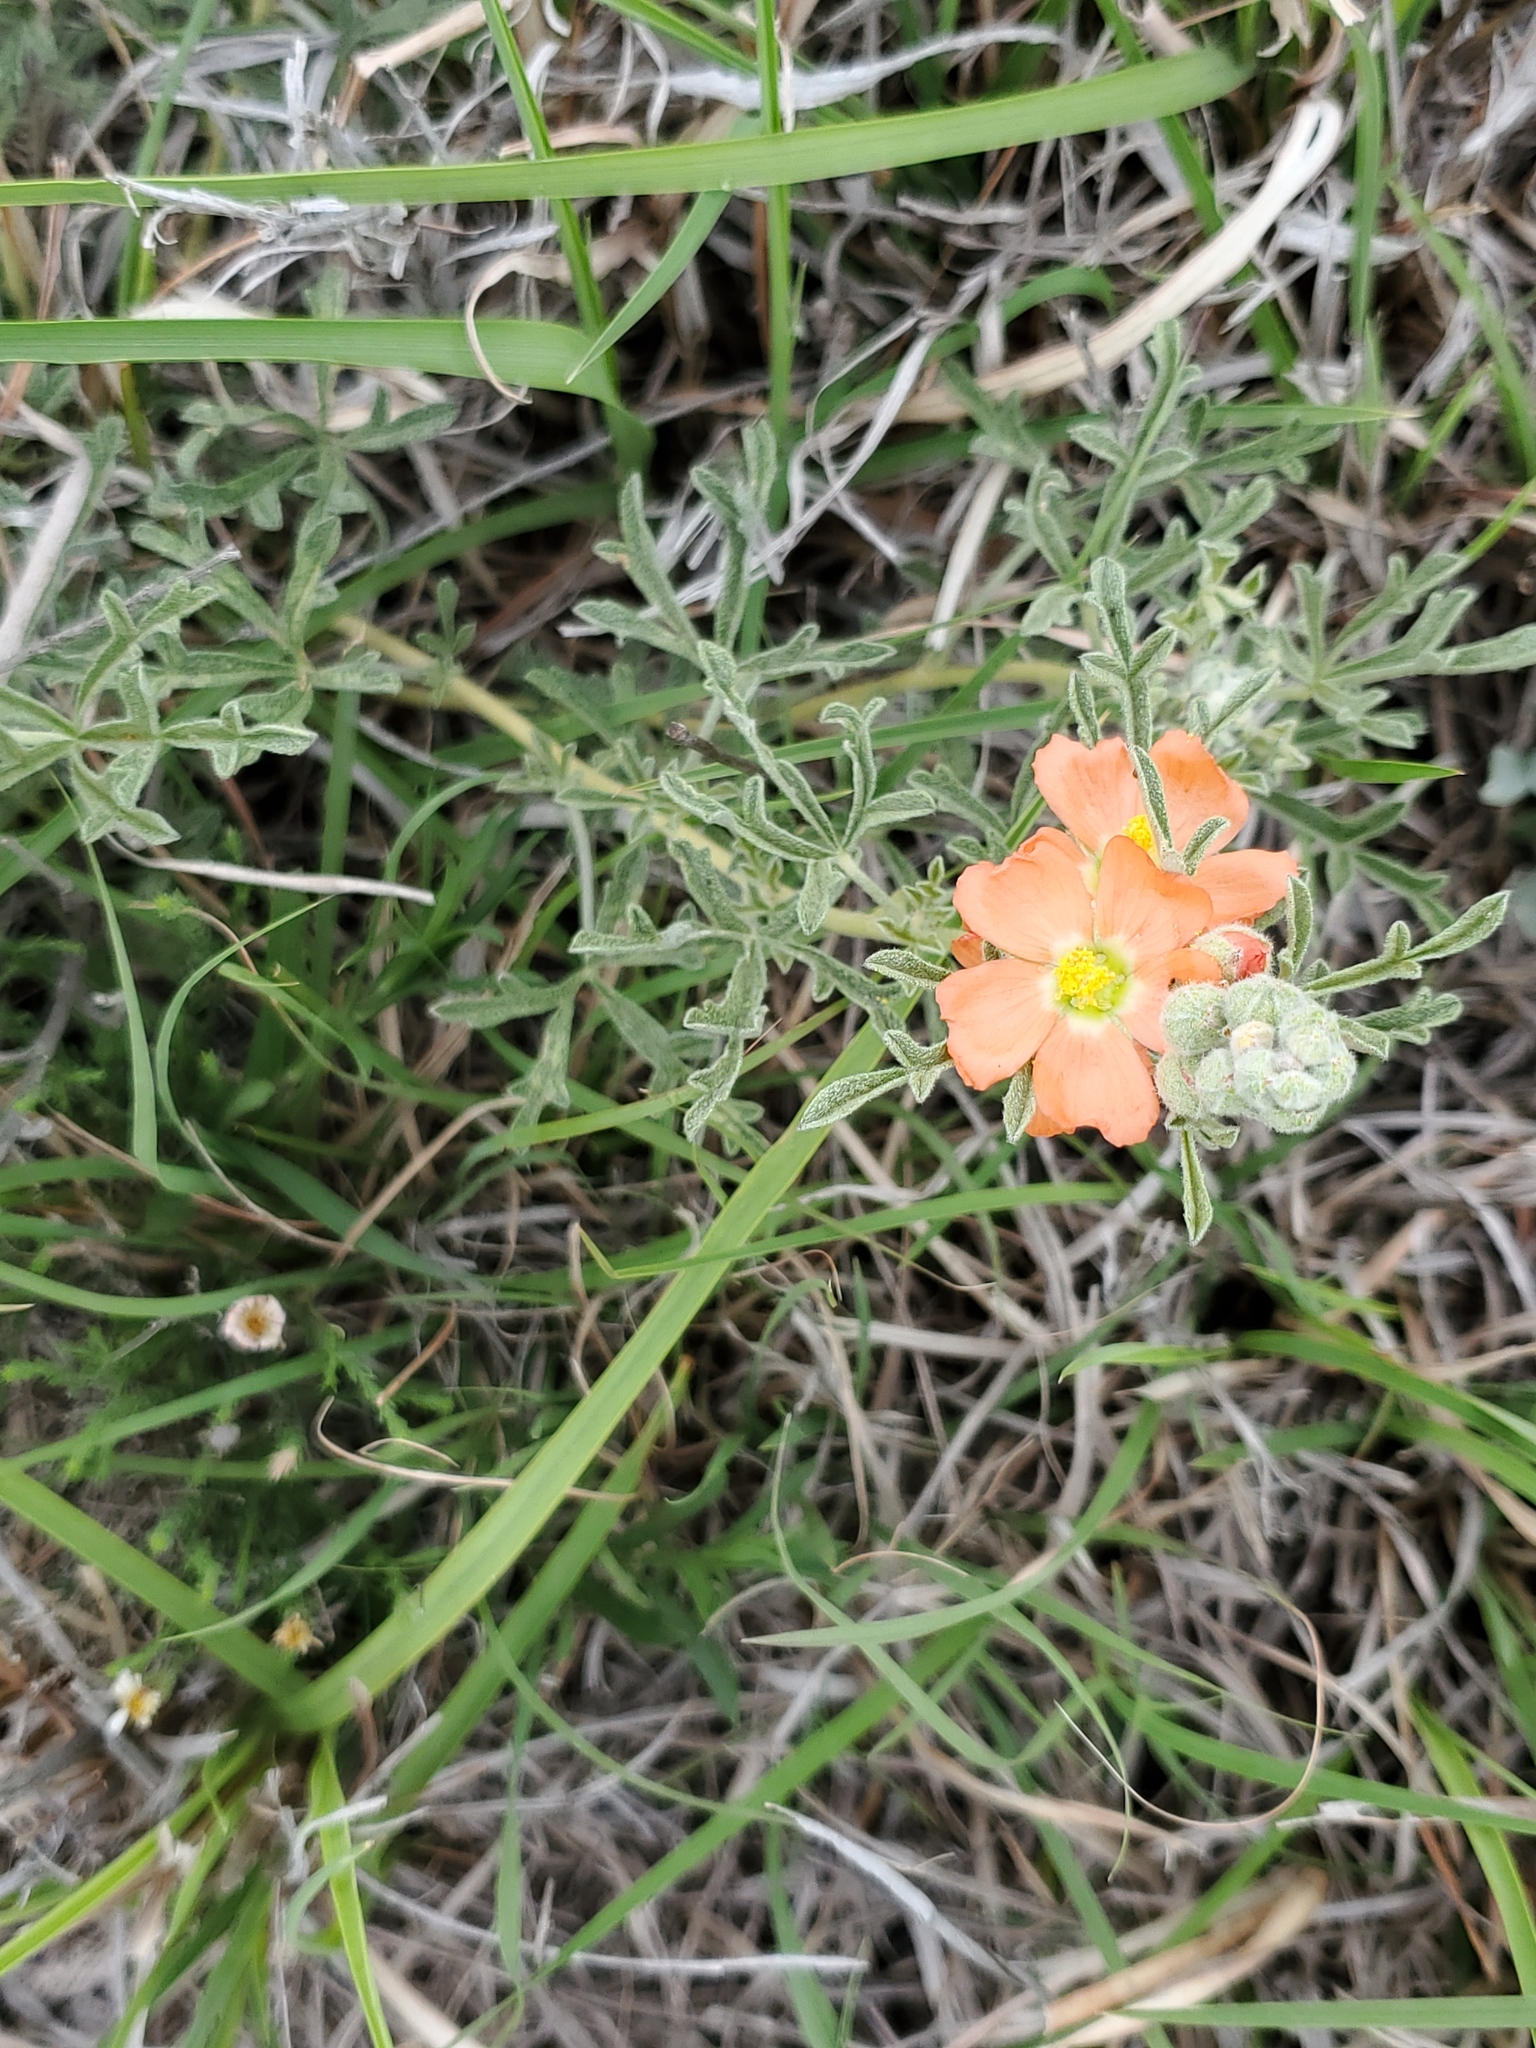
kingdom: Plantae
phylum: Tracheophyta
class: Magnoliopsida
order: Malvales
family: Malvaceae
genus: Sphaeralcea
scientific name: Sphaeralcea coccinea
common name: Moss-rose
